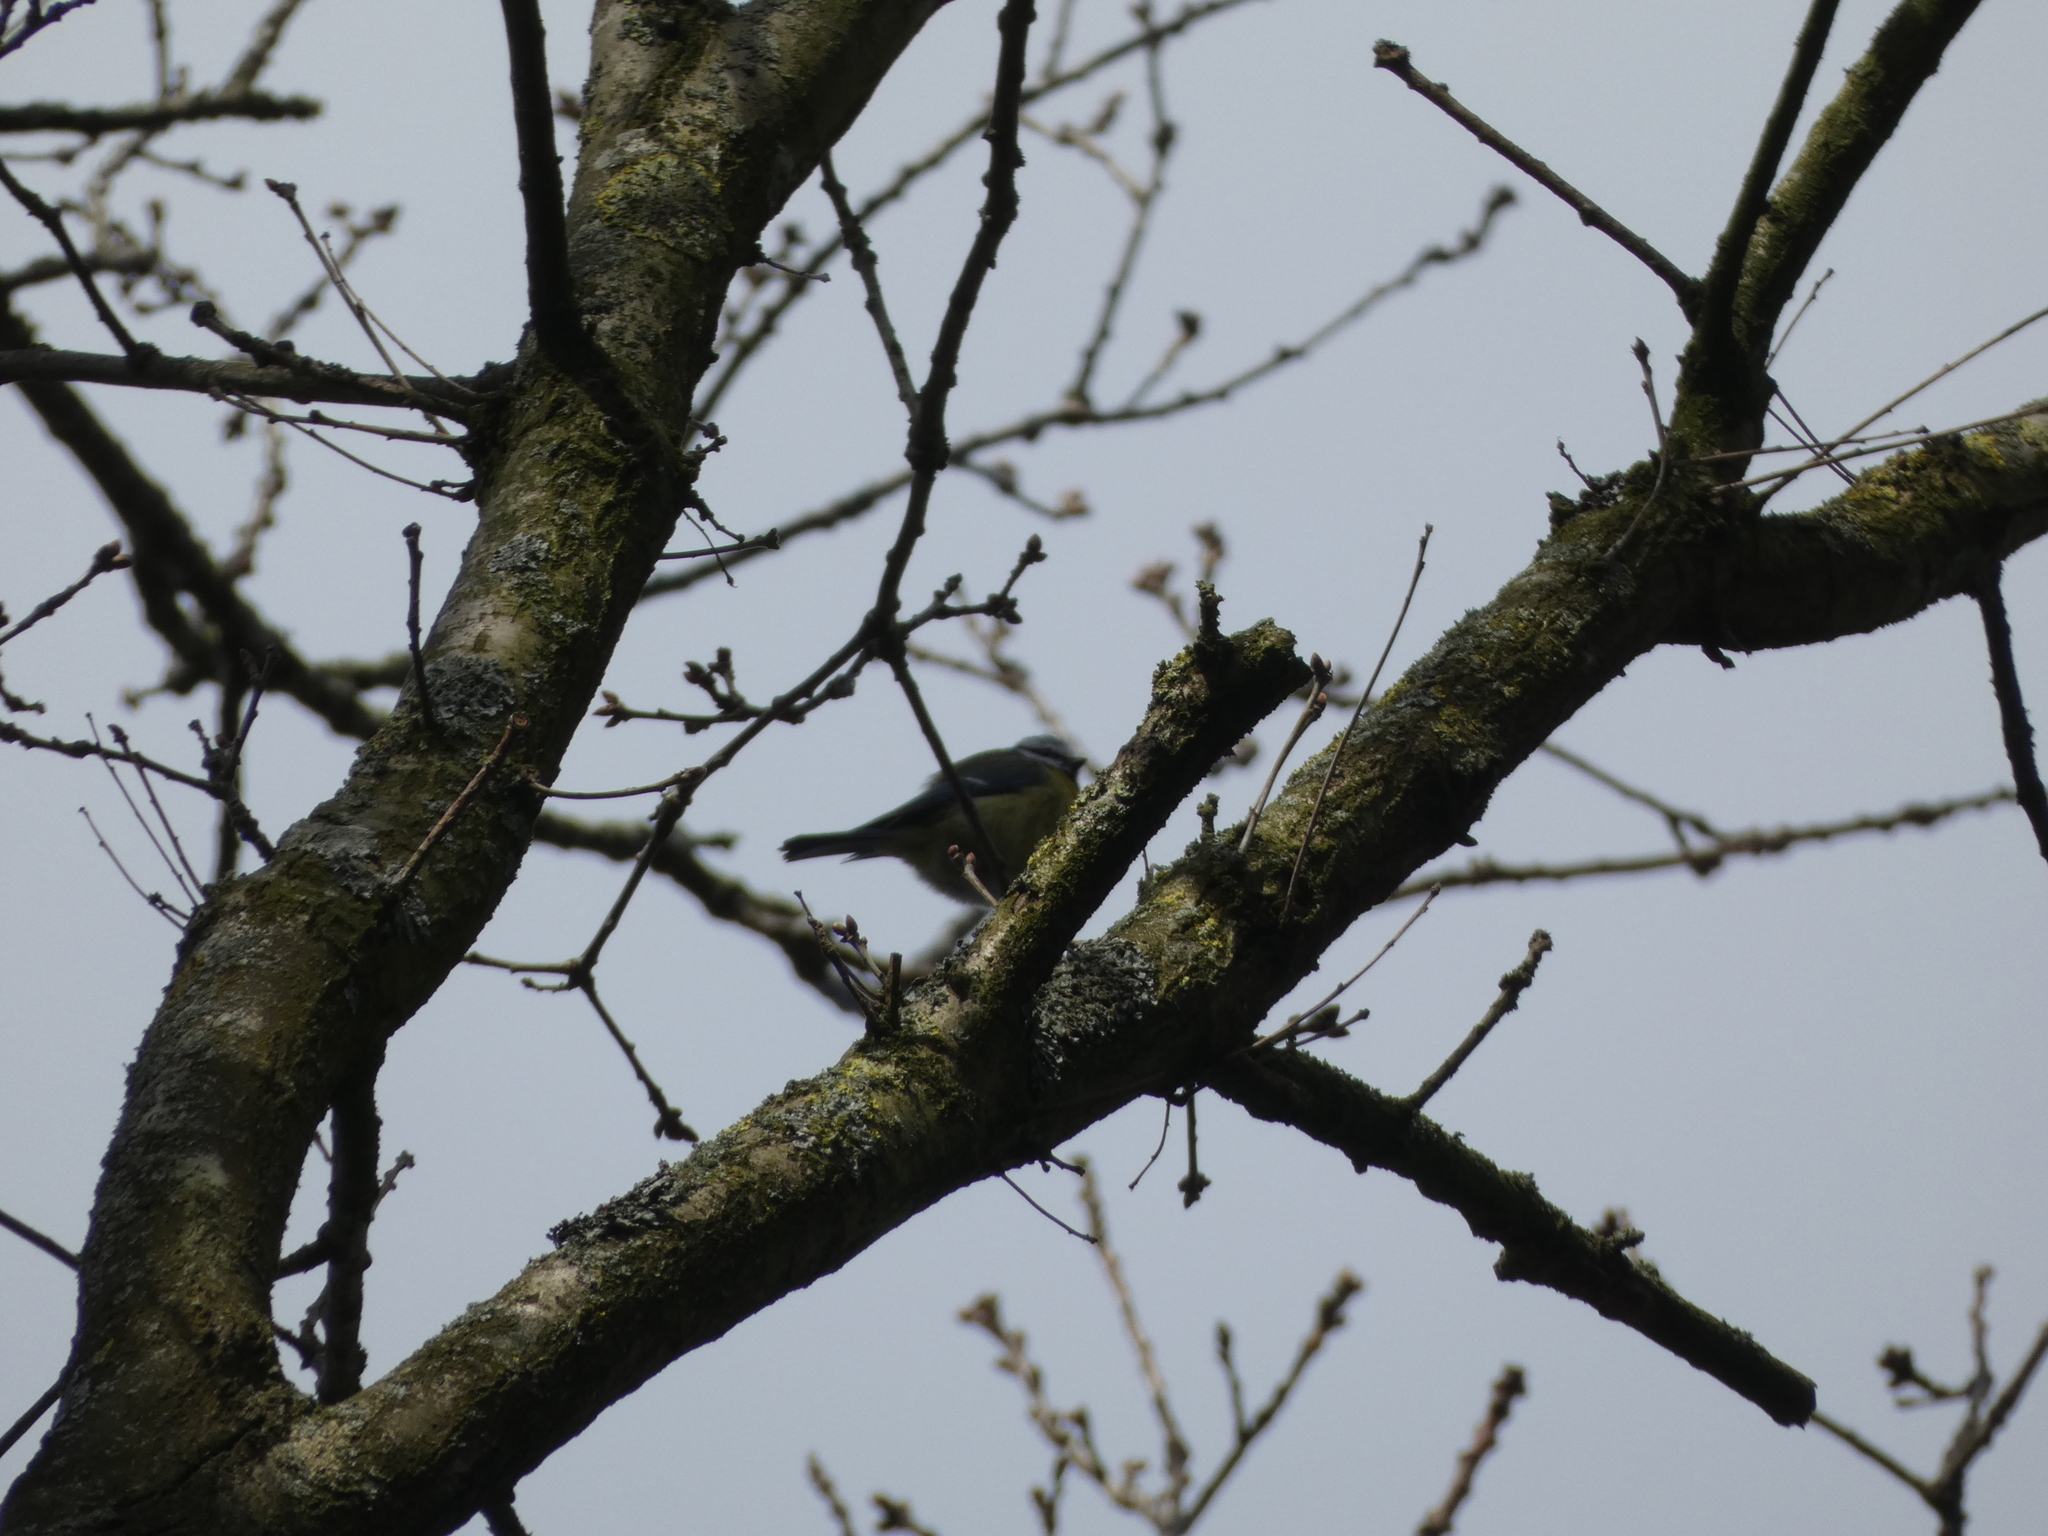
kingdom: Animalia
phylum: Chordata
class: Aves
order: Passeriformes
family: Paridae
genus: Cyanistes
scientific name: Cyanistes caeruleus
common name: Eurasian blue tit
